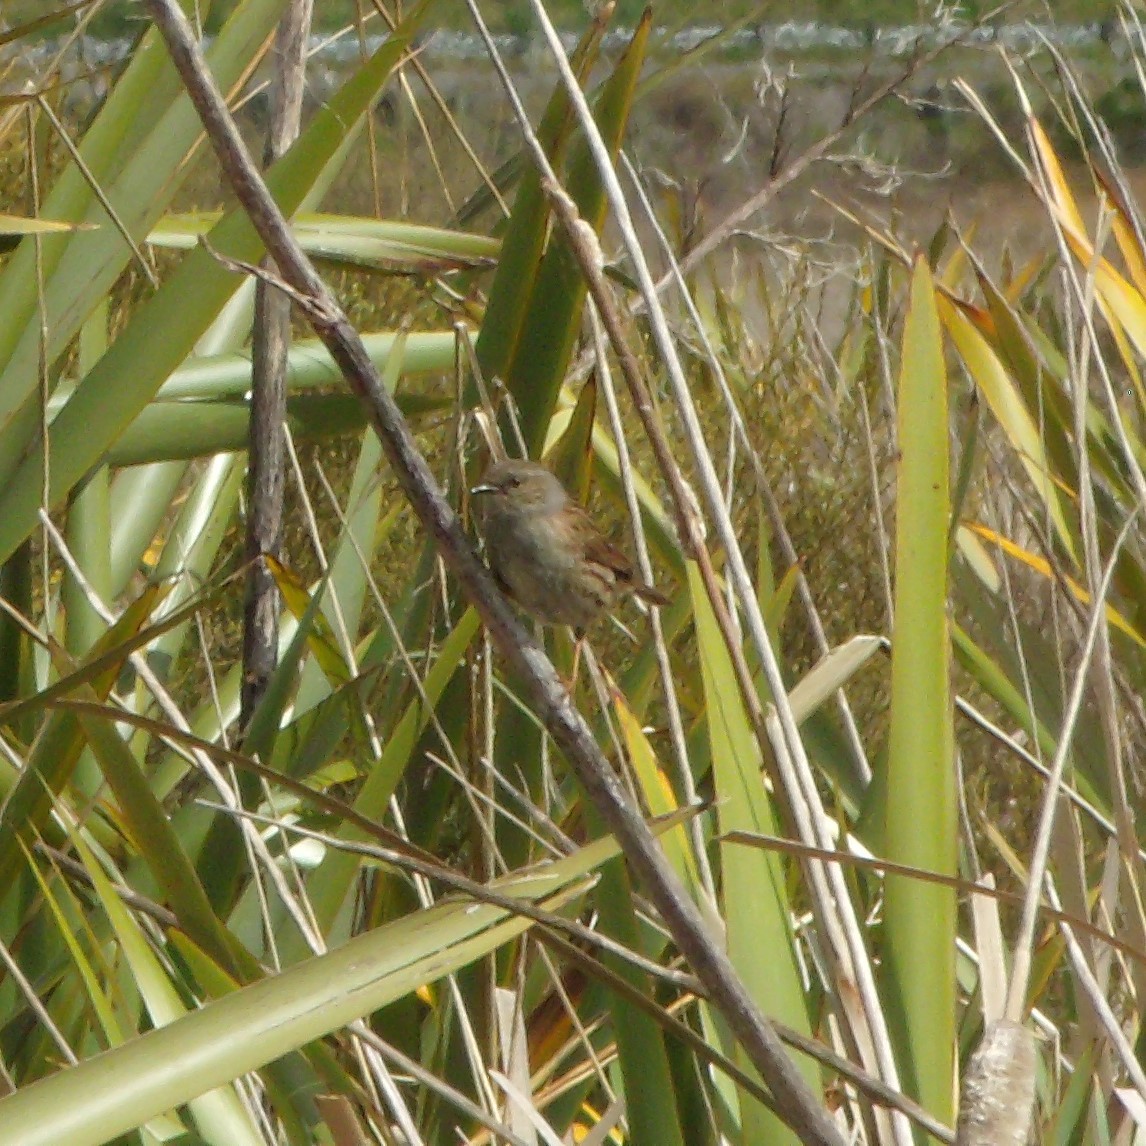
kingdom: Animalia
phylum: Chordata
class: Aves
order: Passeriformes
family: Prunellidae
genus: Prunella
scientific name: Prunella modularis
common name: Dunnock
